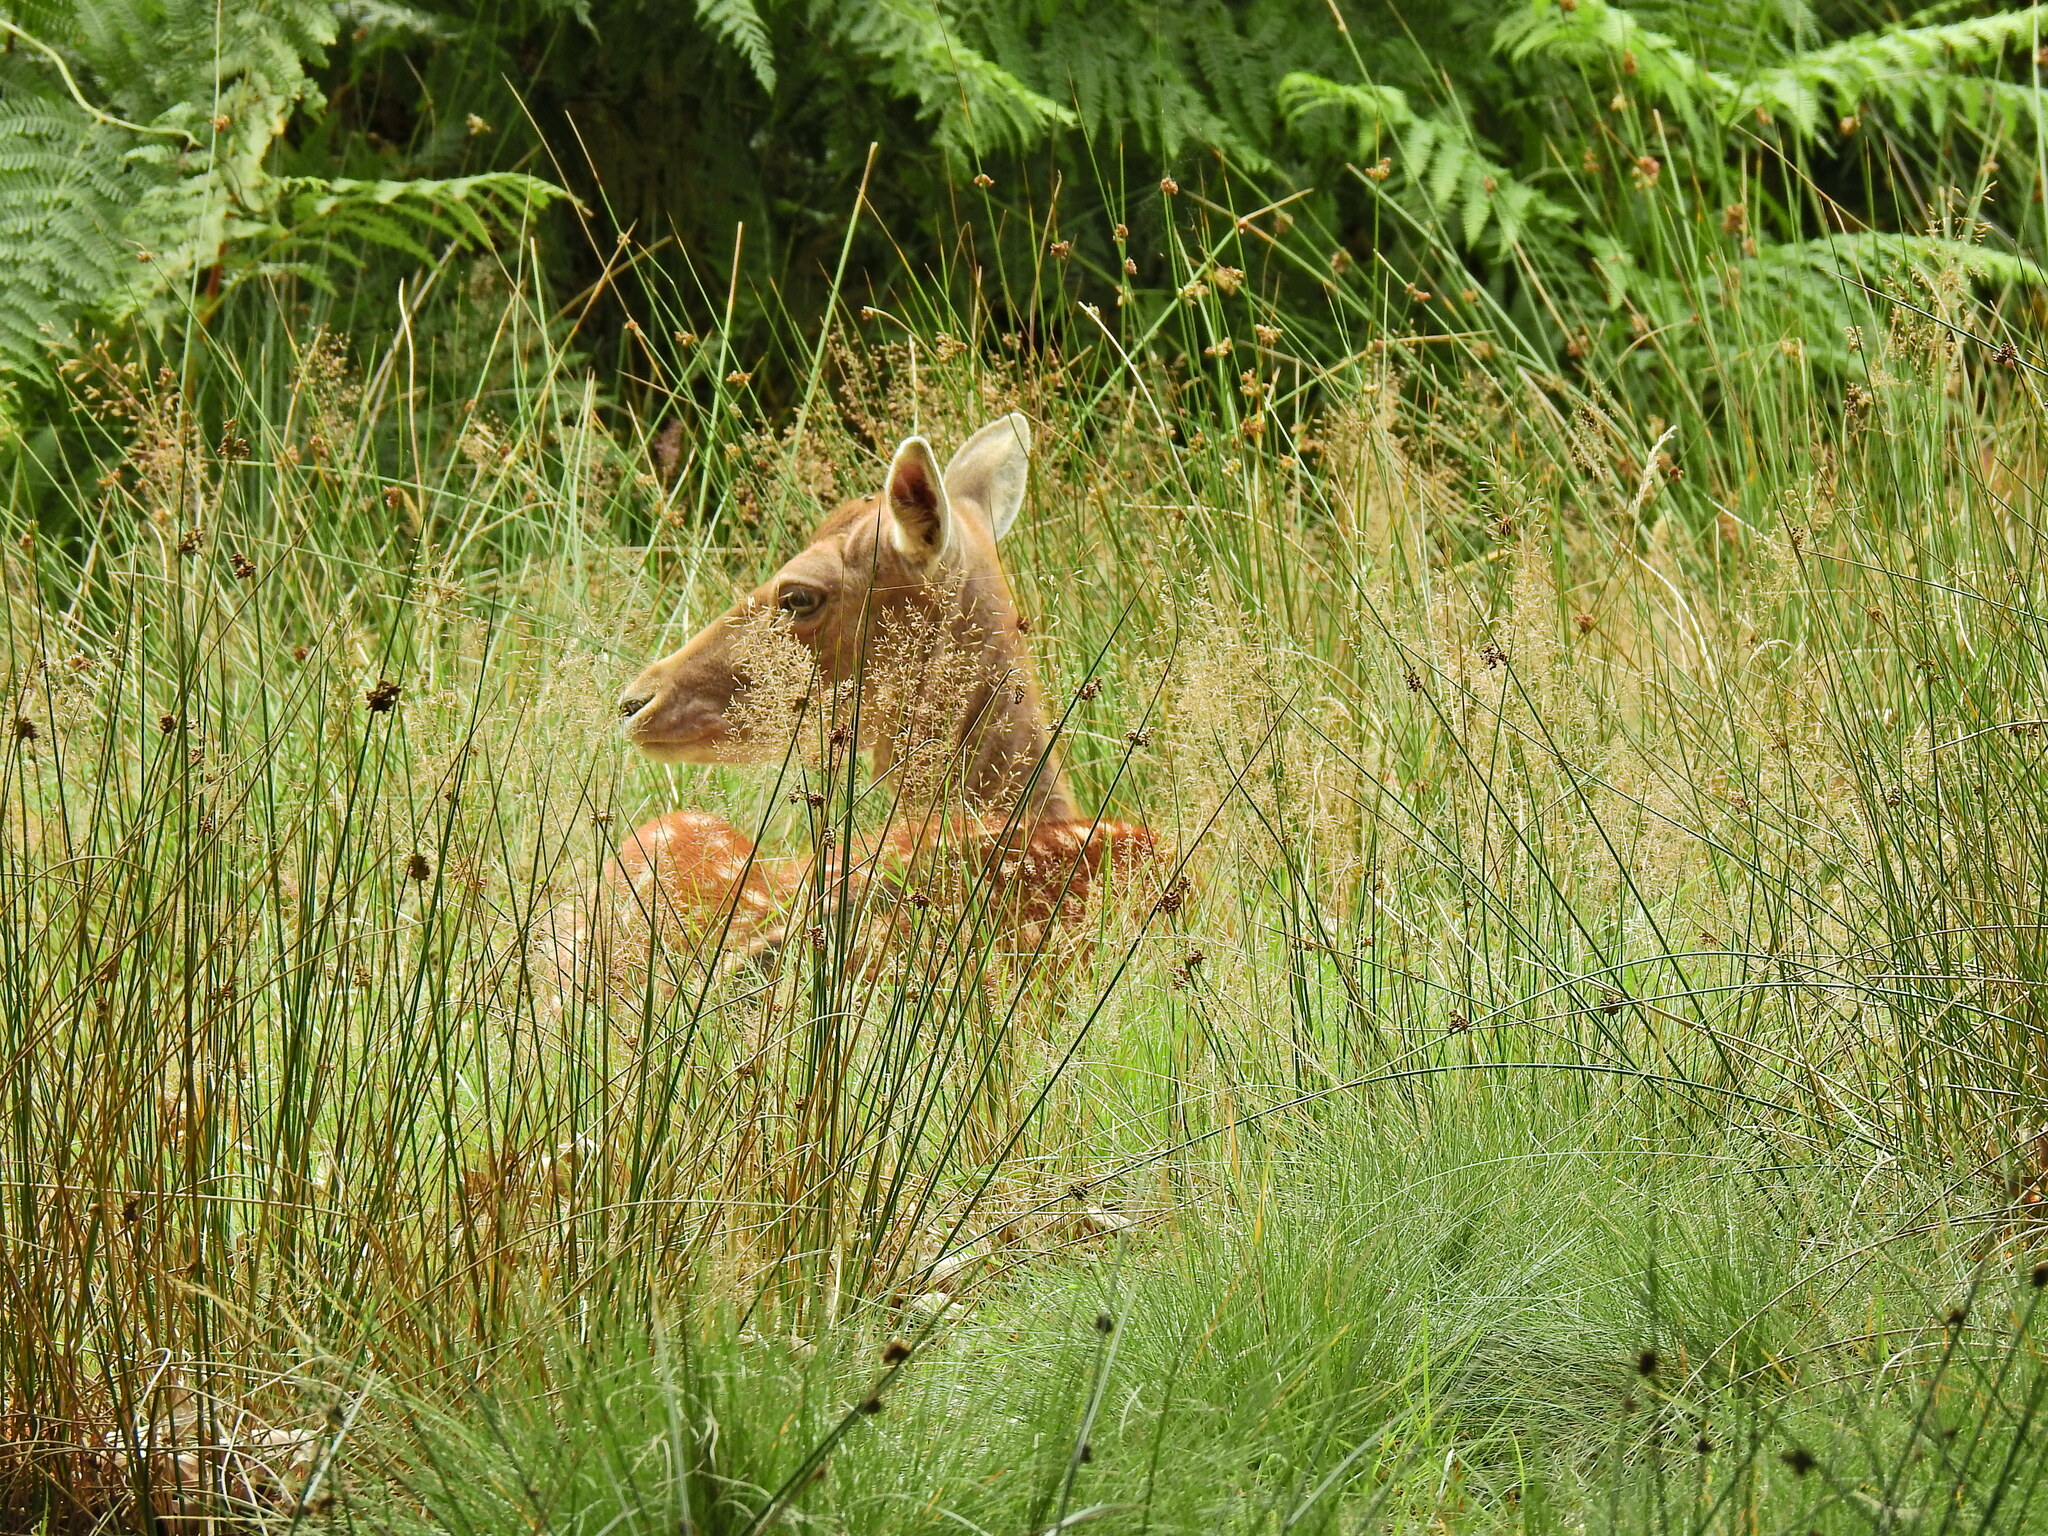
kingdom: Animalia
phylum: Chordata
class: Mammalia
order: Artiodactyla
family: Cervidae
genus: Dama
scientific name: Dama dama
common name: Fallow deer
